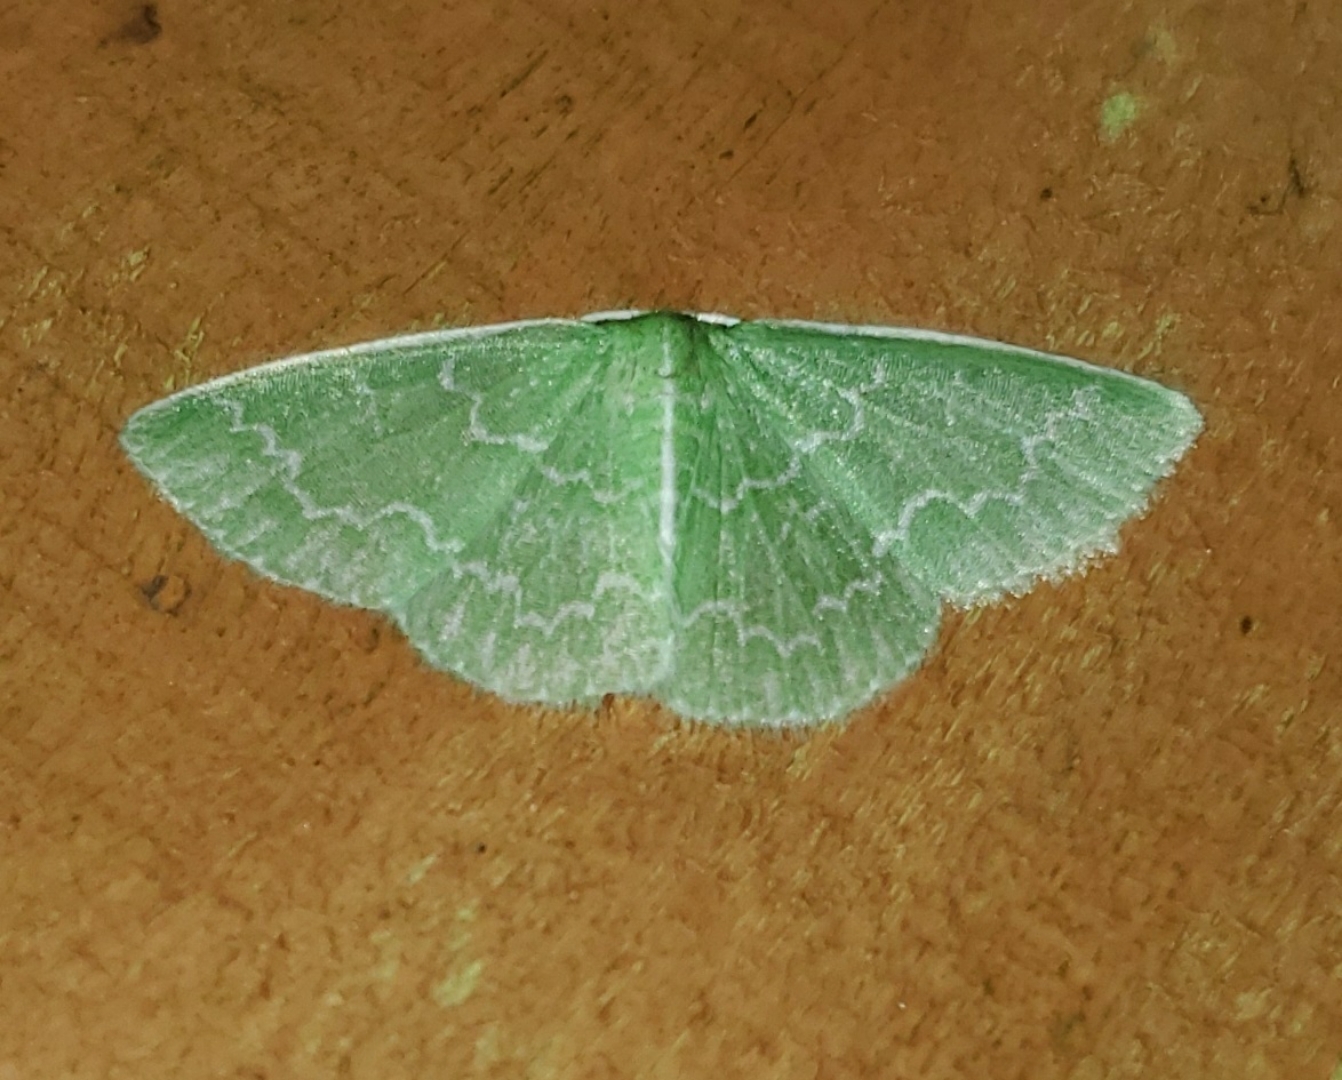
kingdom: Animalia
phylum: Arthropoda
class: Insecta
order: Lepidoptera
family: Geometridae
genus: Synchlora
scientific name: Synchlora frondaria
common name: Southern emerald
